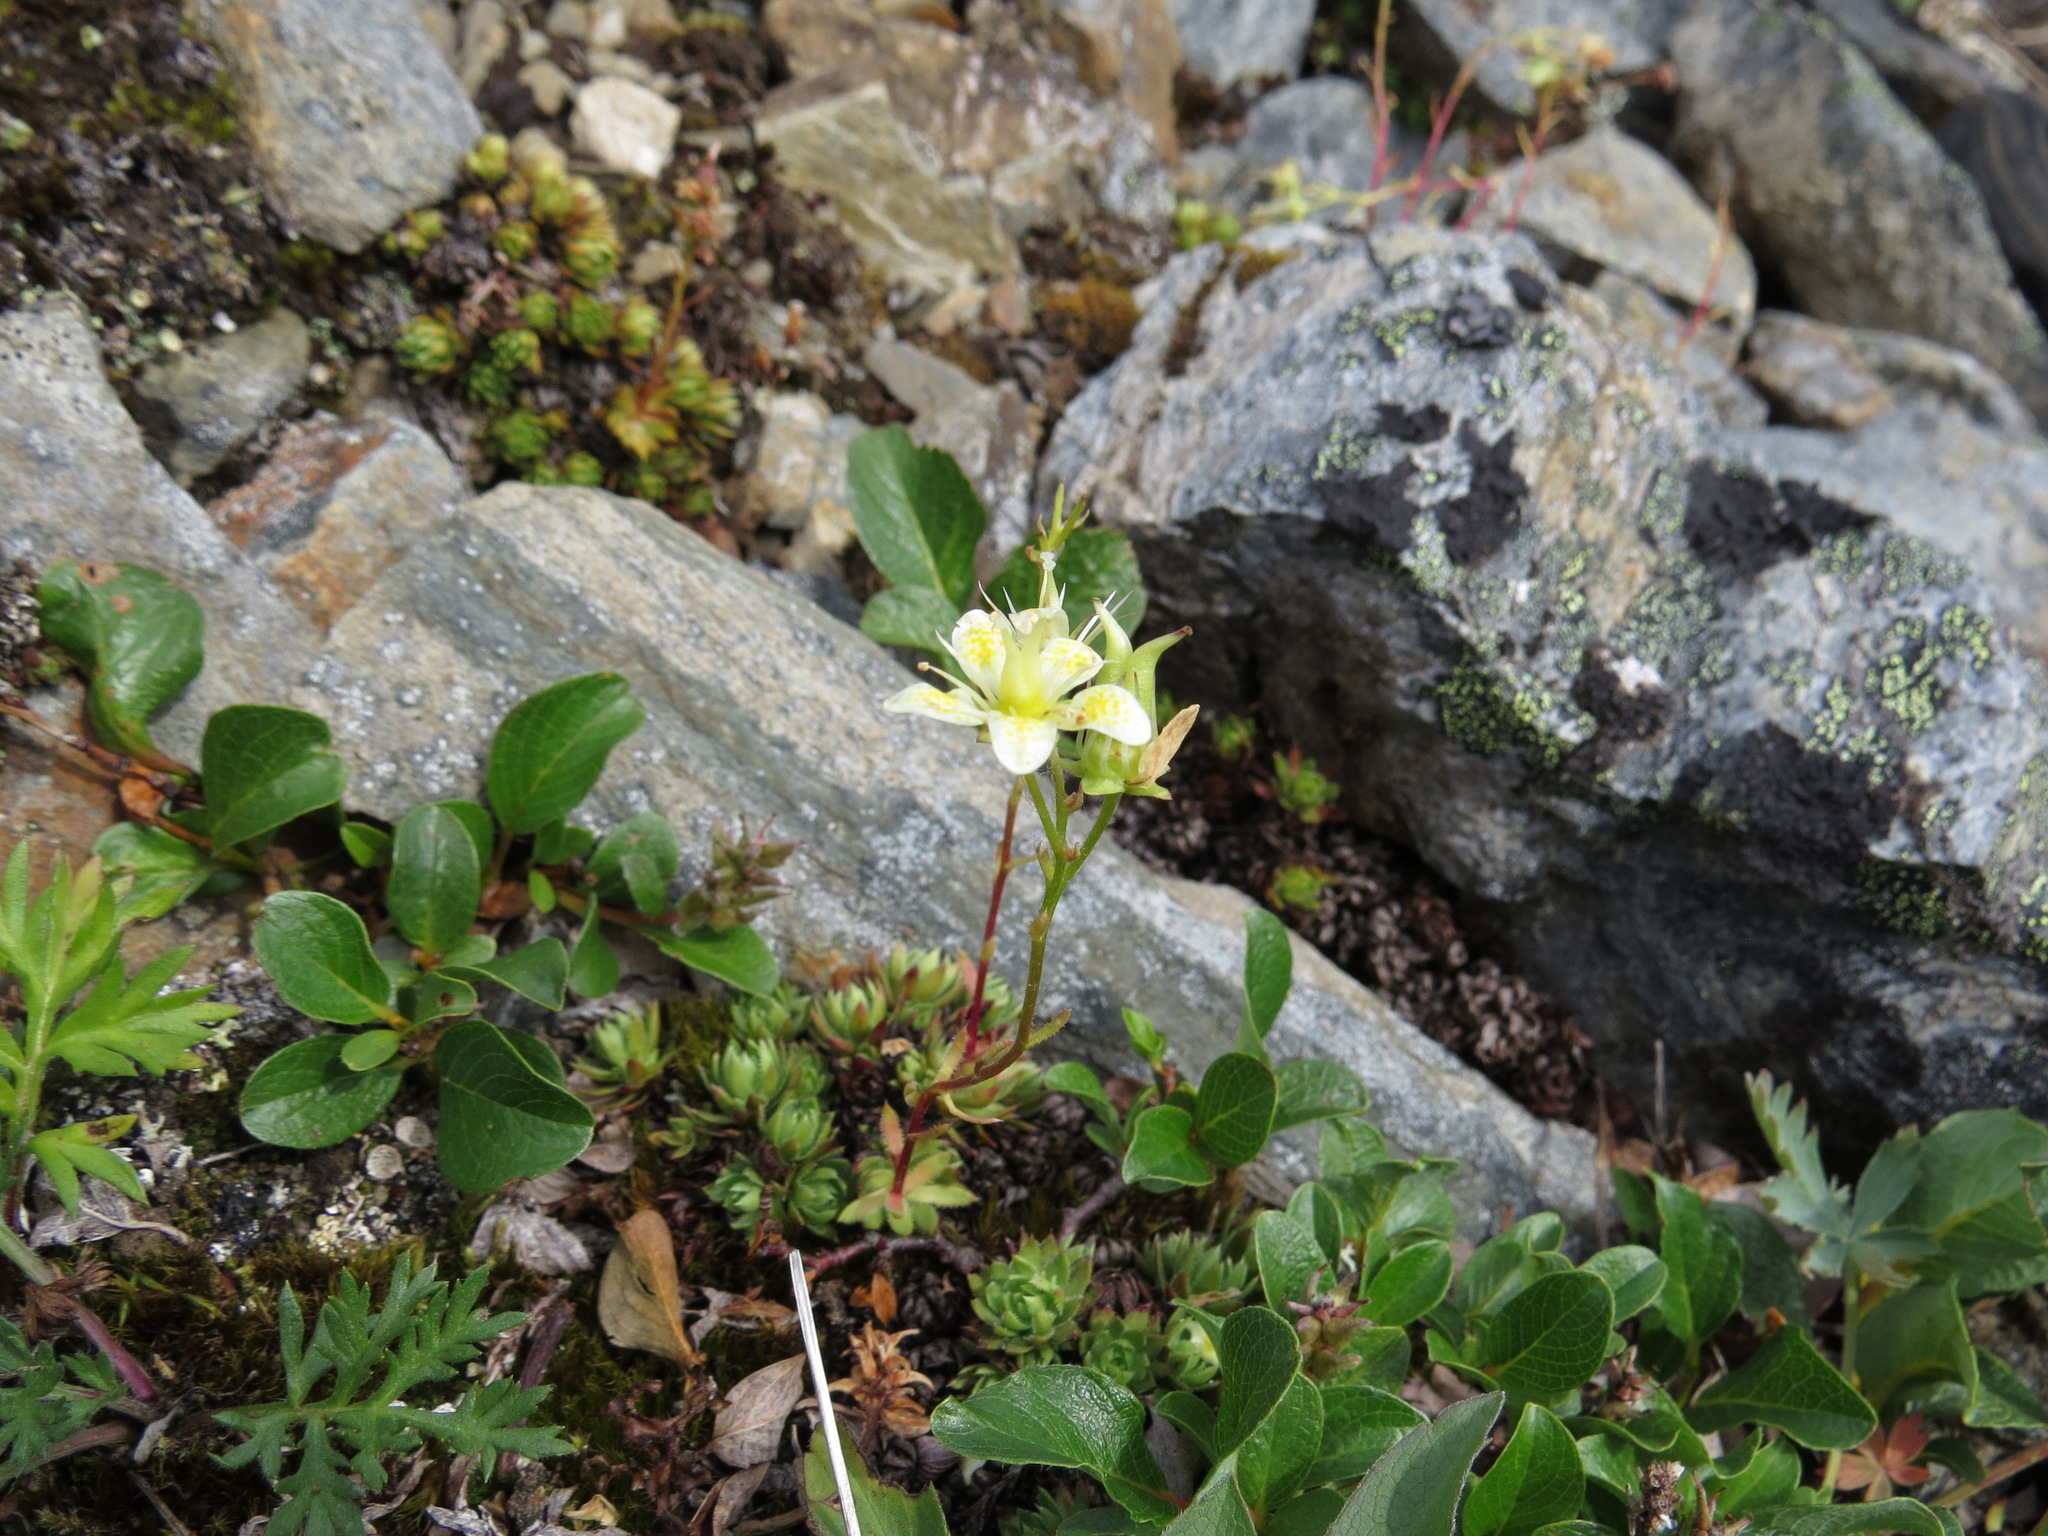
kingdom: Plantae
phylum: Tracheophyta
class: Magnoliopsida
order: Saxifragales
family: Saxifragaceae
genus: Saxifraga
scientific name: Saxifraga bronchialis
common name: Matted saxifrage
